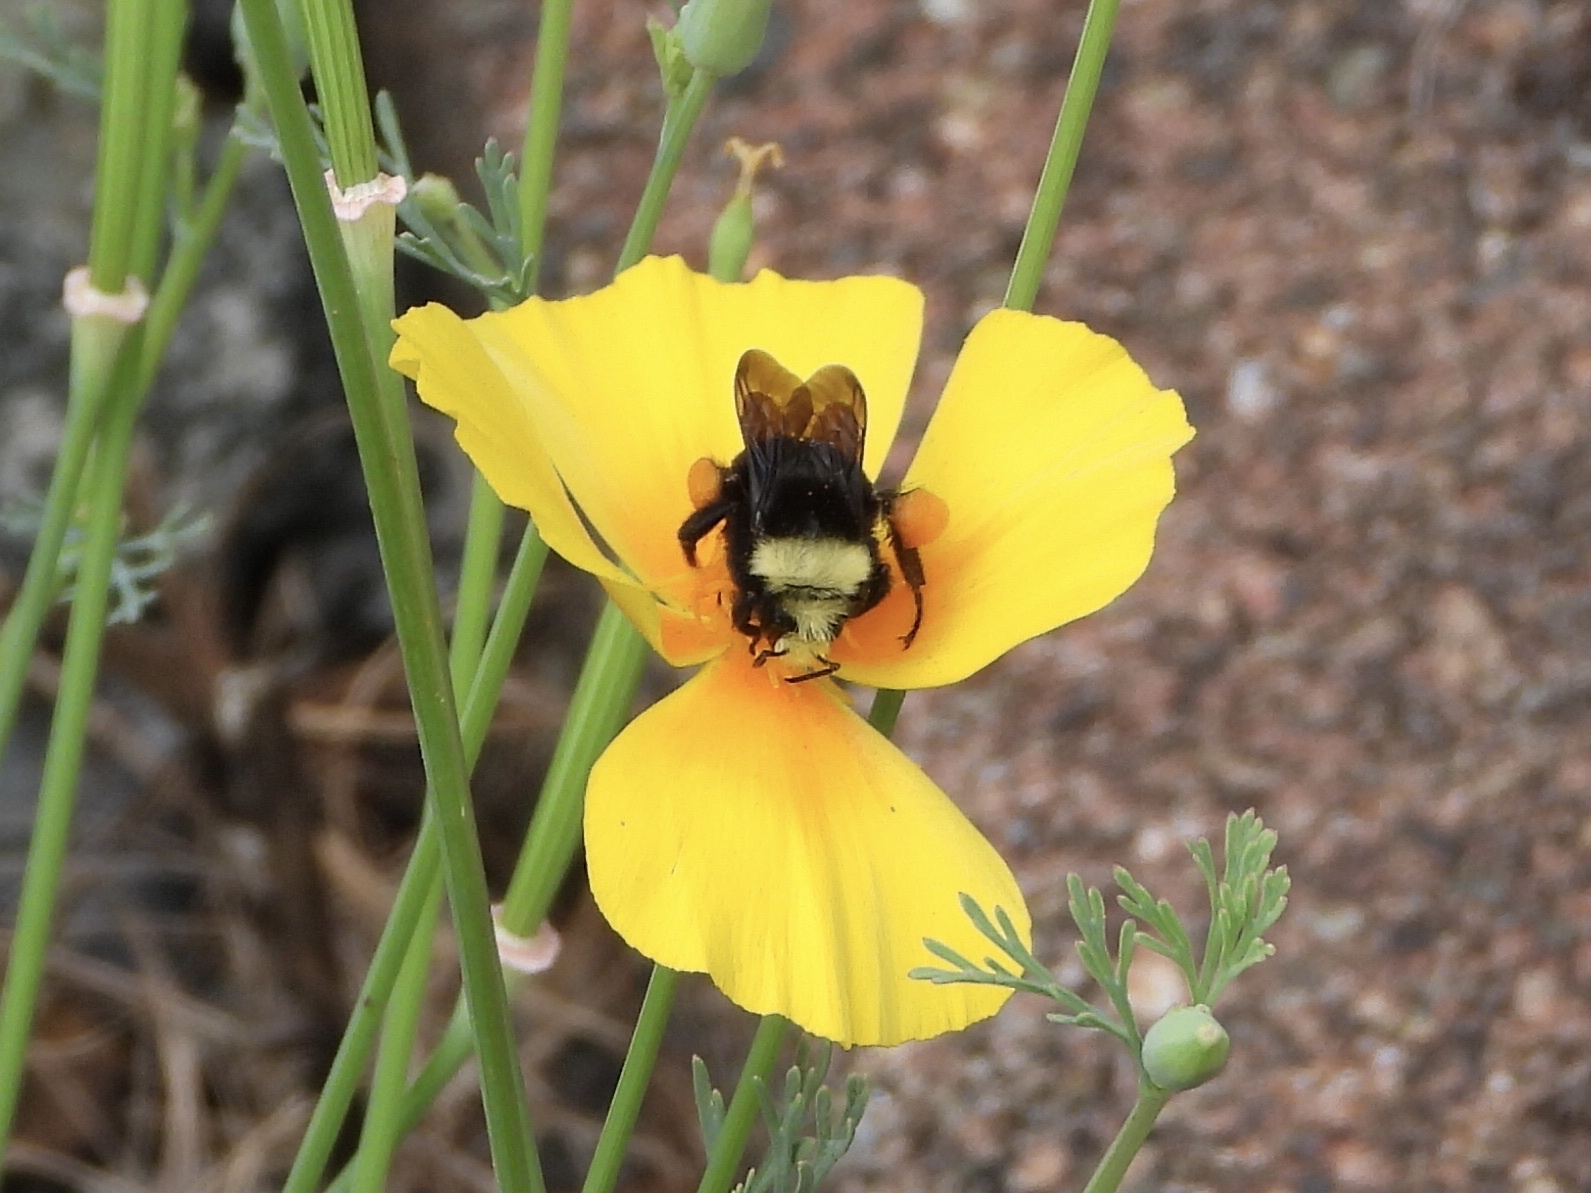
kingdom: Animalia
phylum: Arthropoda
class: Insecta
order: Hymenoptera
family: Apidae
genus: Bombus
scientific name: Bombus vosnesenskii
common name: Vosnesensky bumble bee
